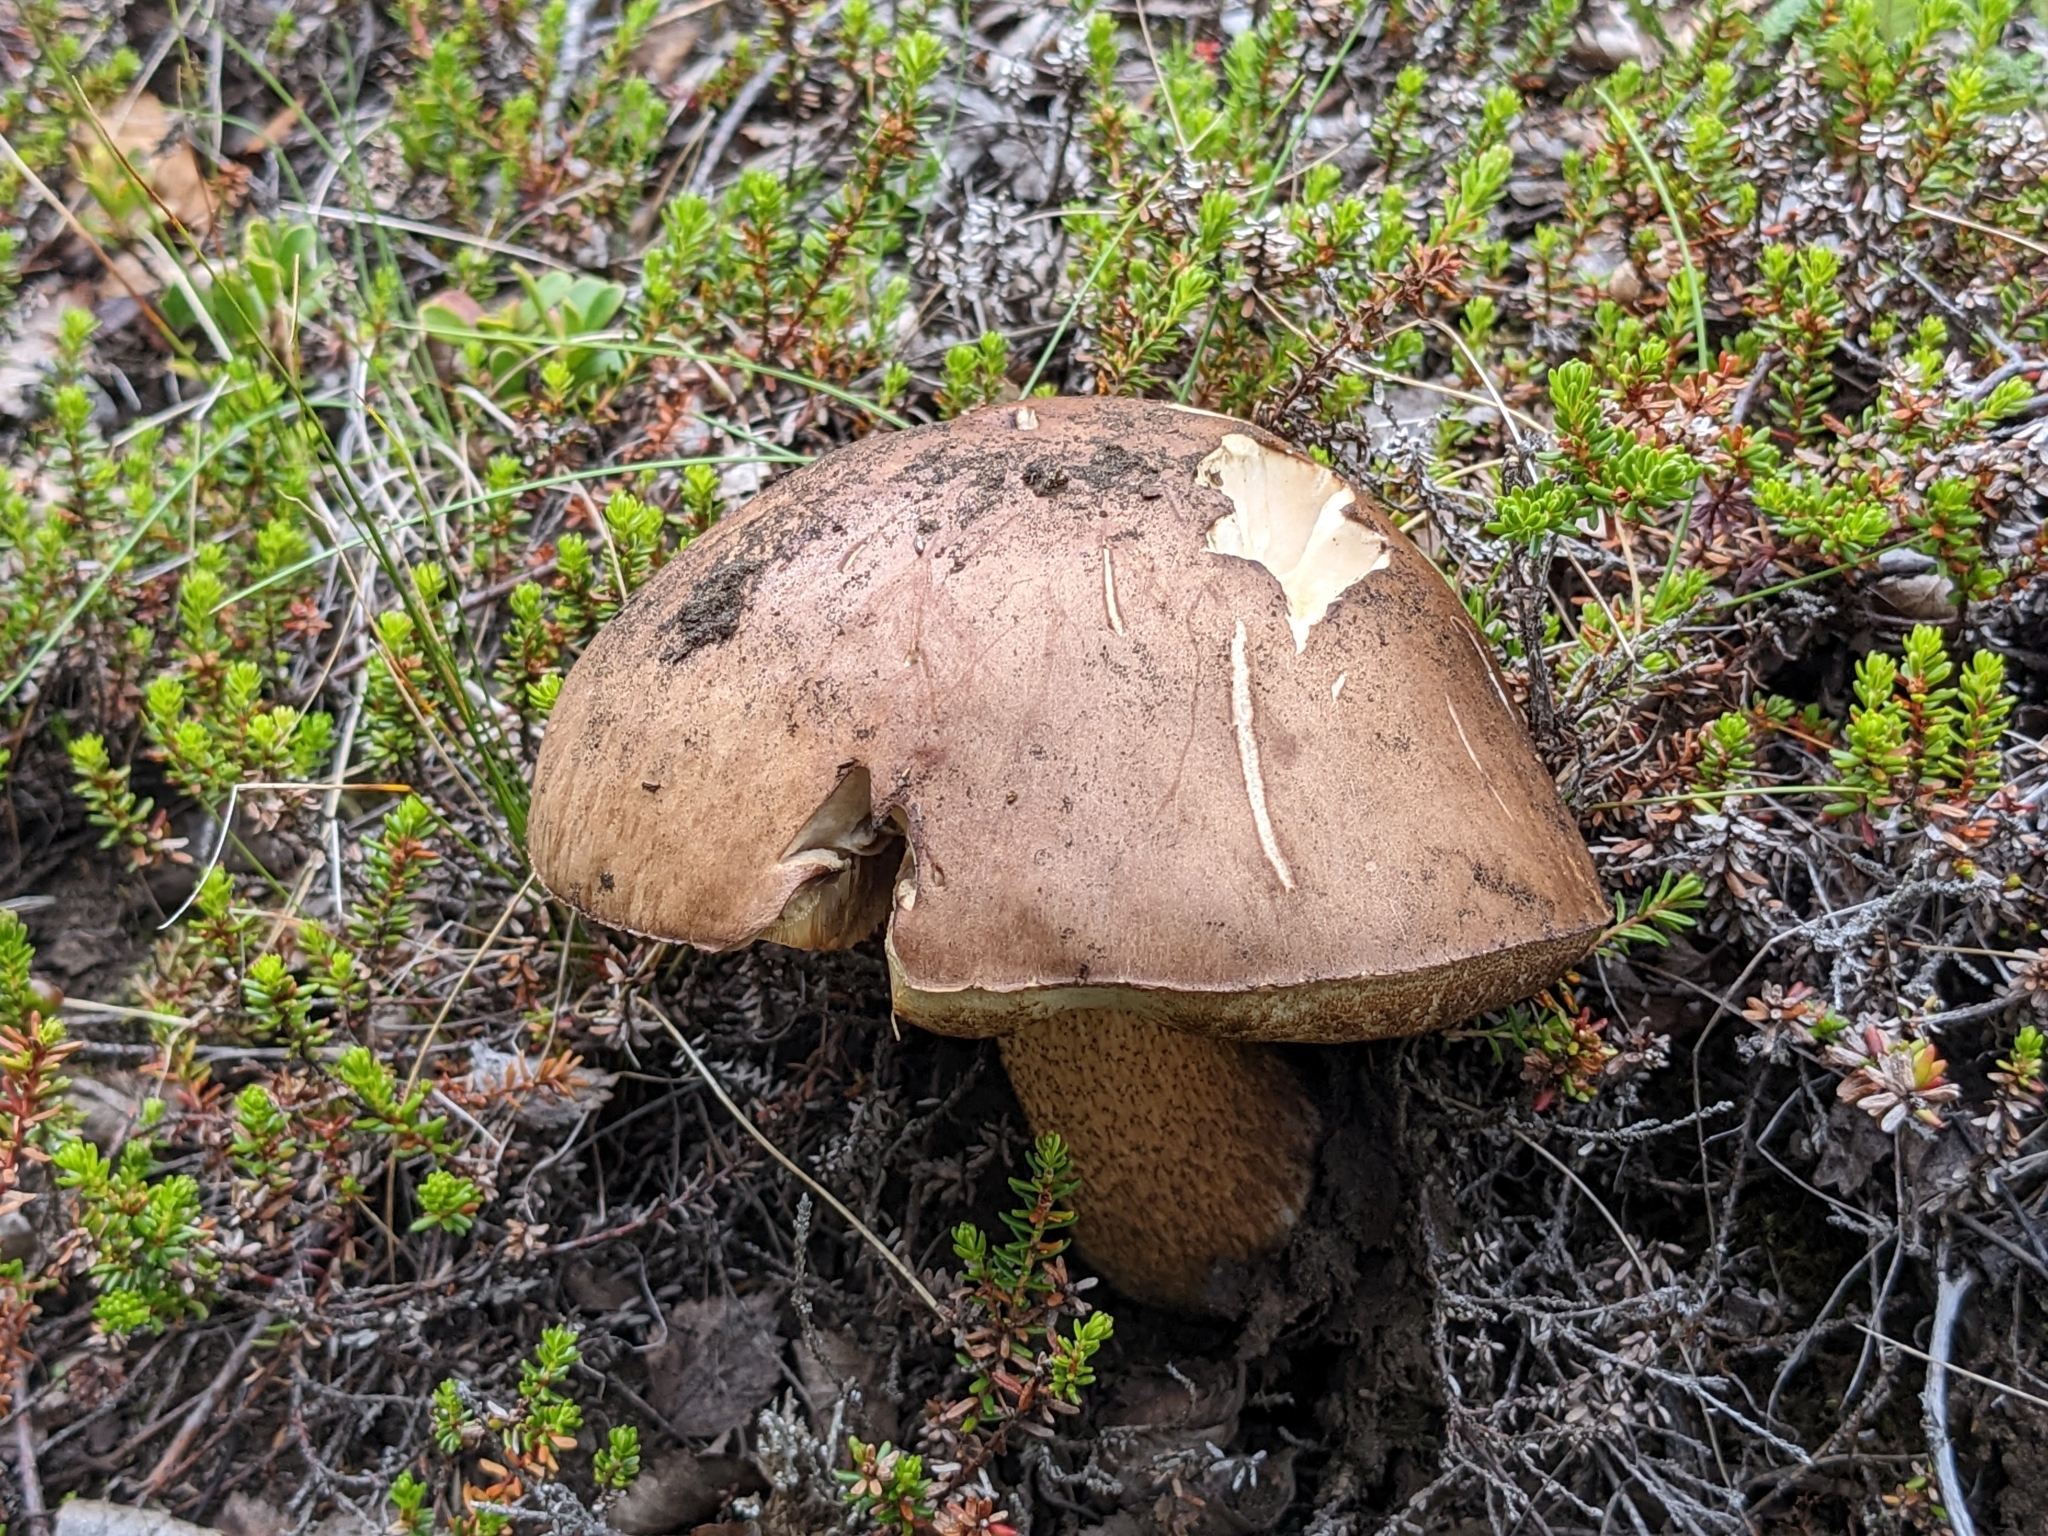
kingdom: Fungi
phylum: Basidiomycota
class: Agaricomycetes
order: Boletales
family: Boletaceae
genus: Leccinum
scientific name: Leccinum scabrum
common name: Blushing bolete
